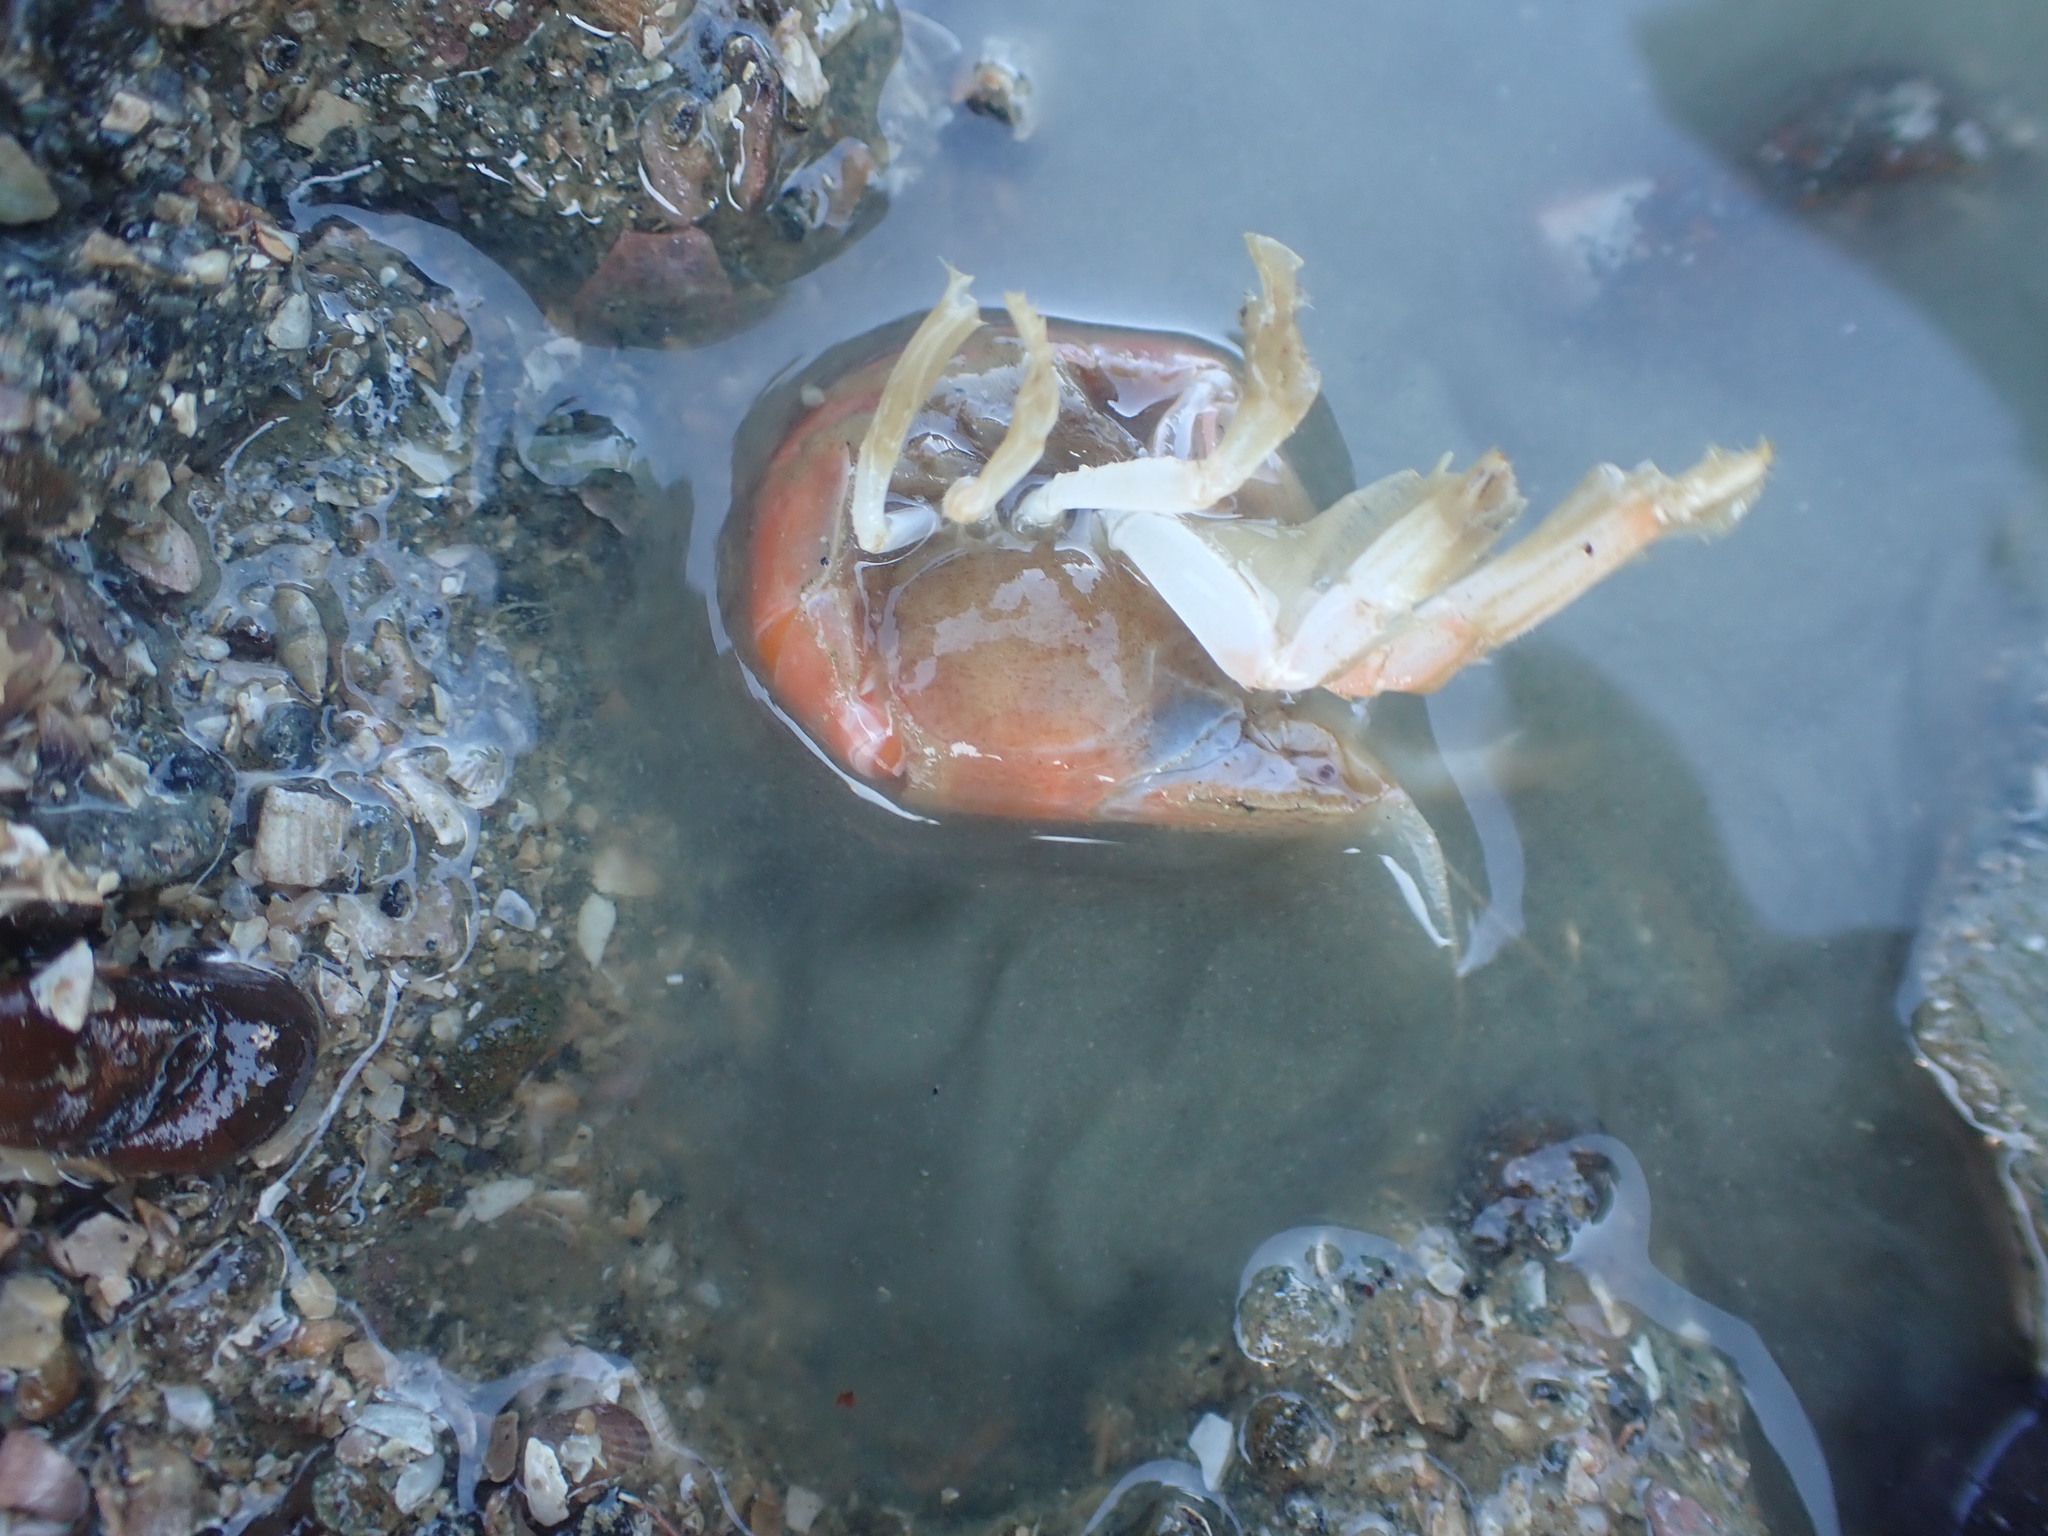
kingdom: Animalia
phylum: Arthropoda
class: Malacostraca
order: Decapoda
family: Upogebiidae
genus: Upogebia
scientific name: Upogebia hirtifrons
